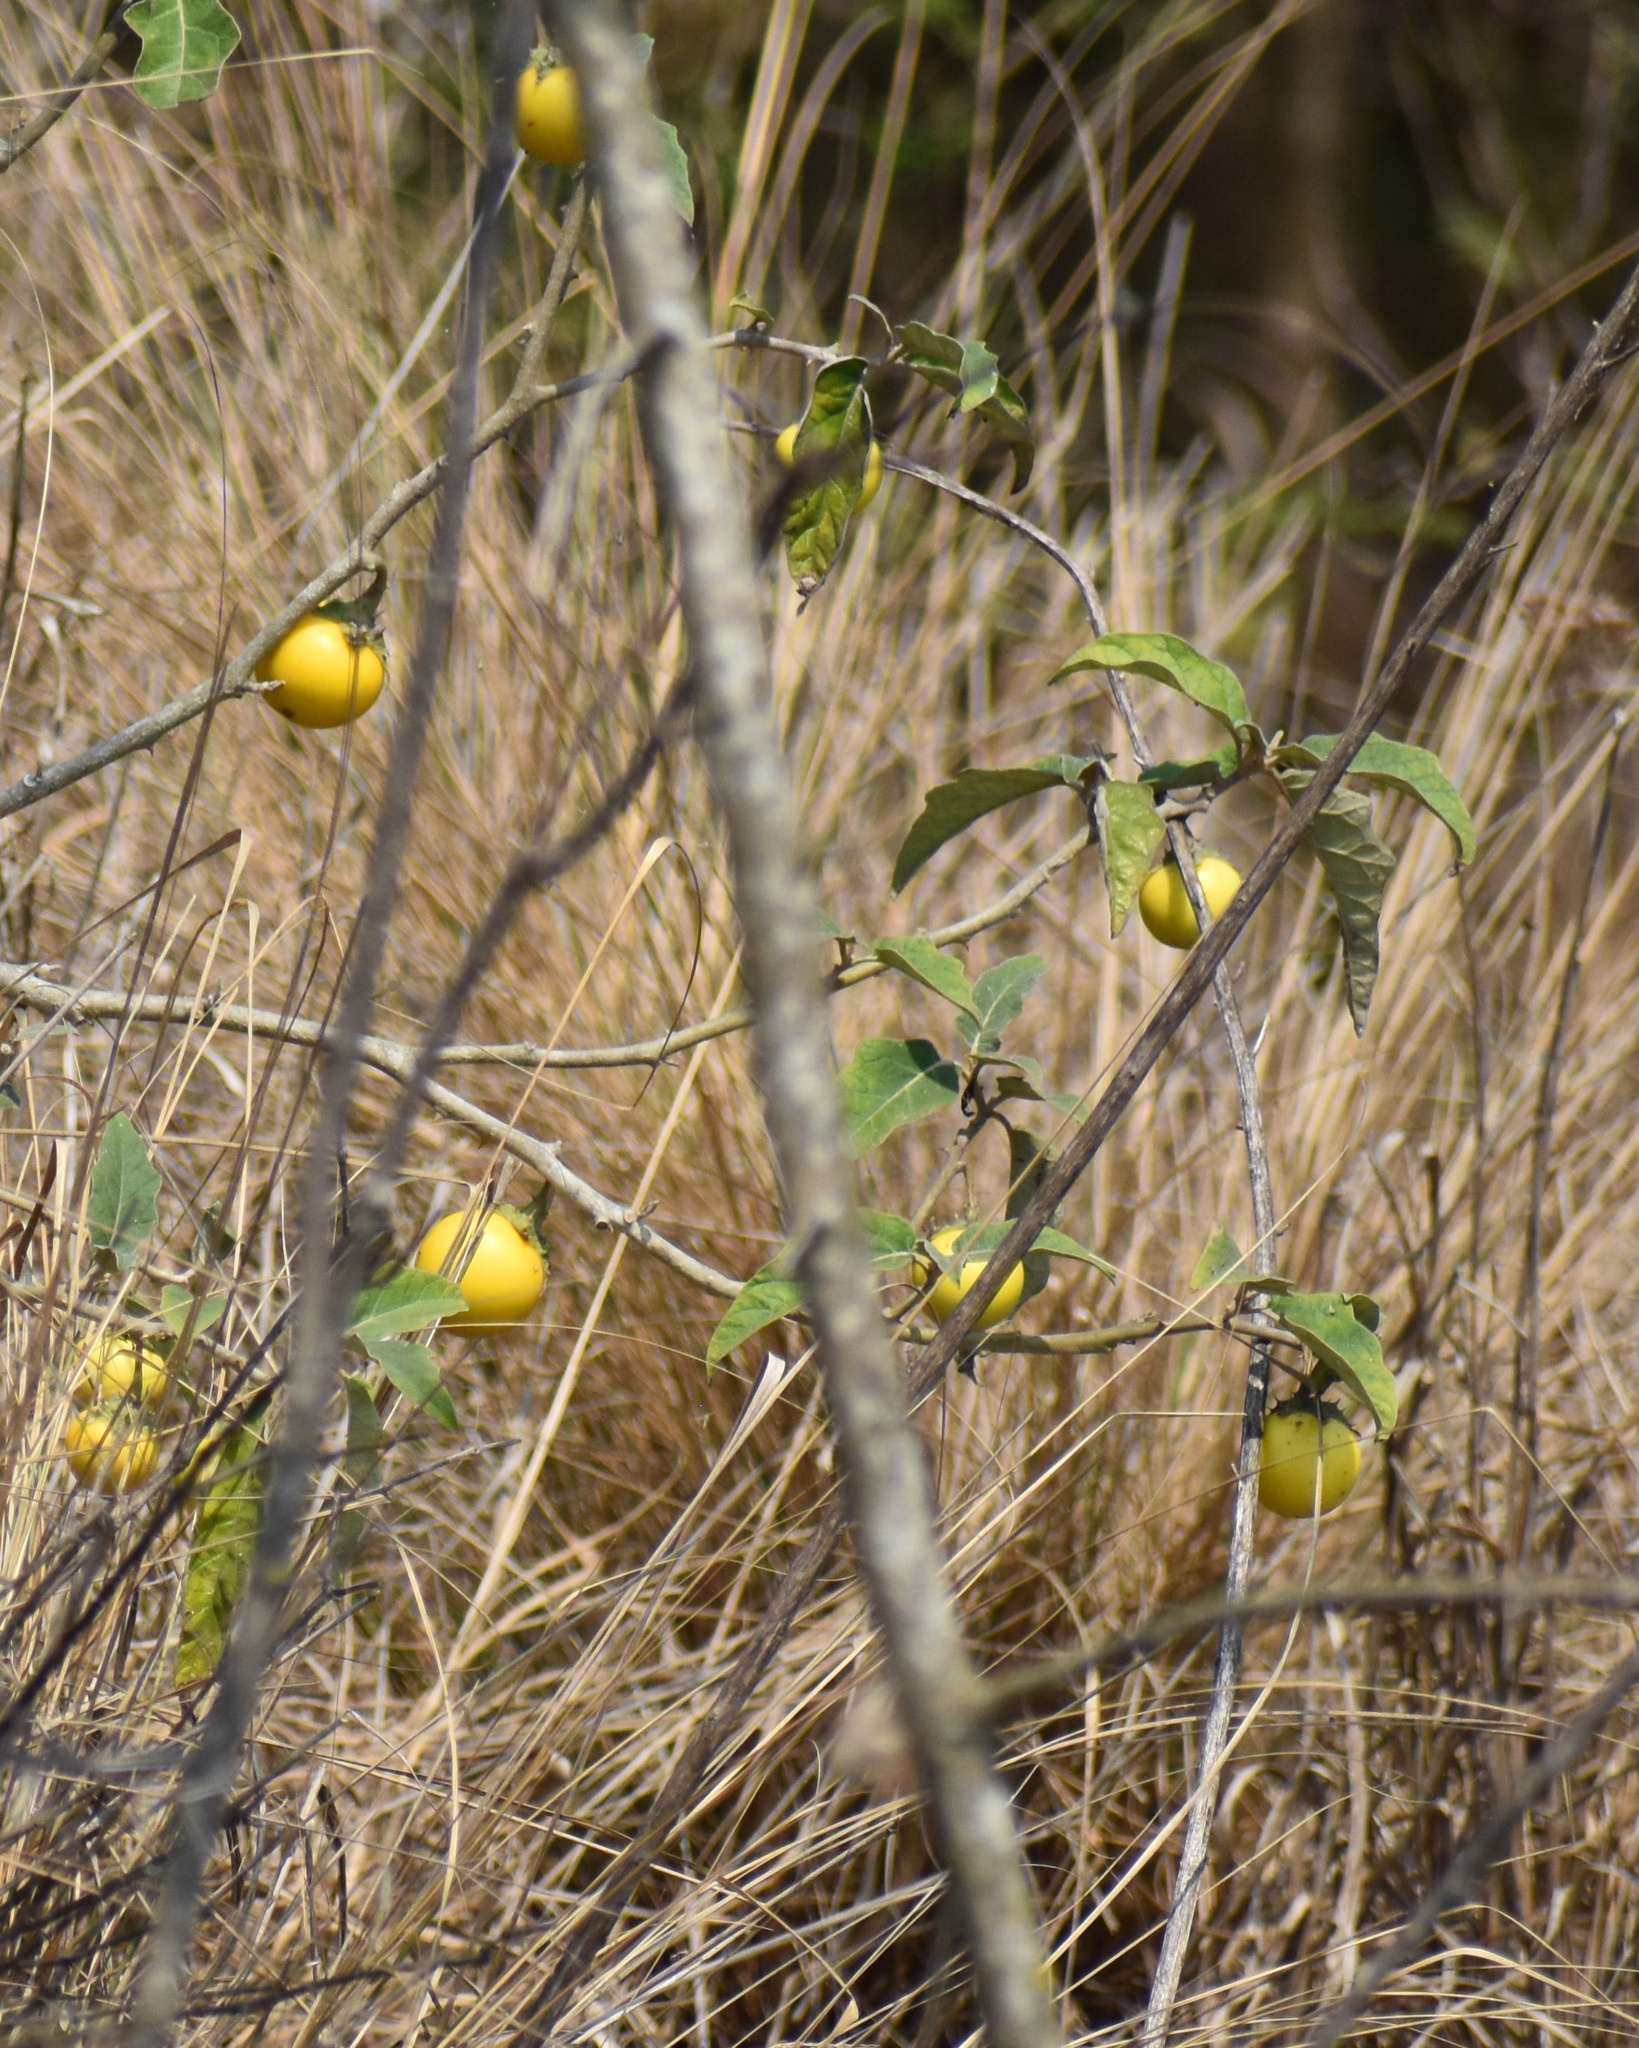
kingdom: Plantae
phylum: Tracheophyta
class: Magnoliopsida
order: Solanales
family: Solanaceae
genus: Solanum
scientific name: Solanum lichtensteinii
